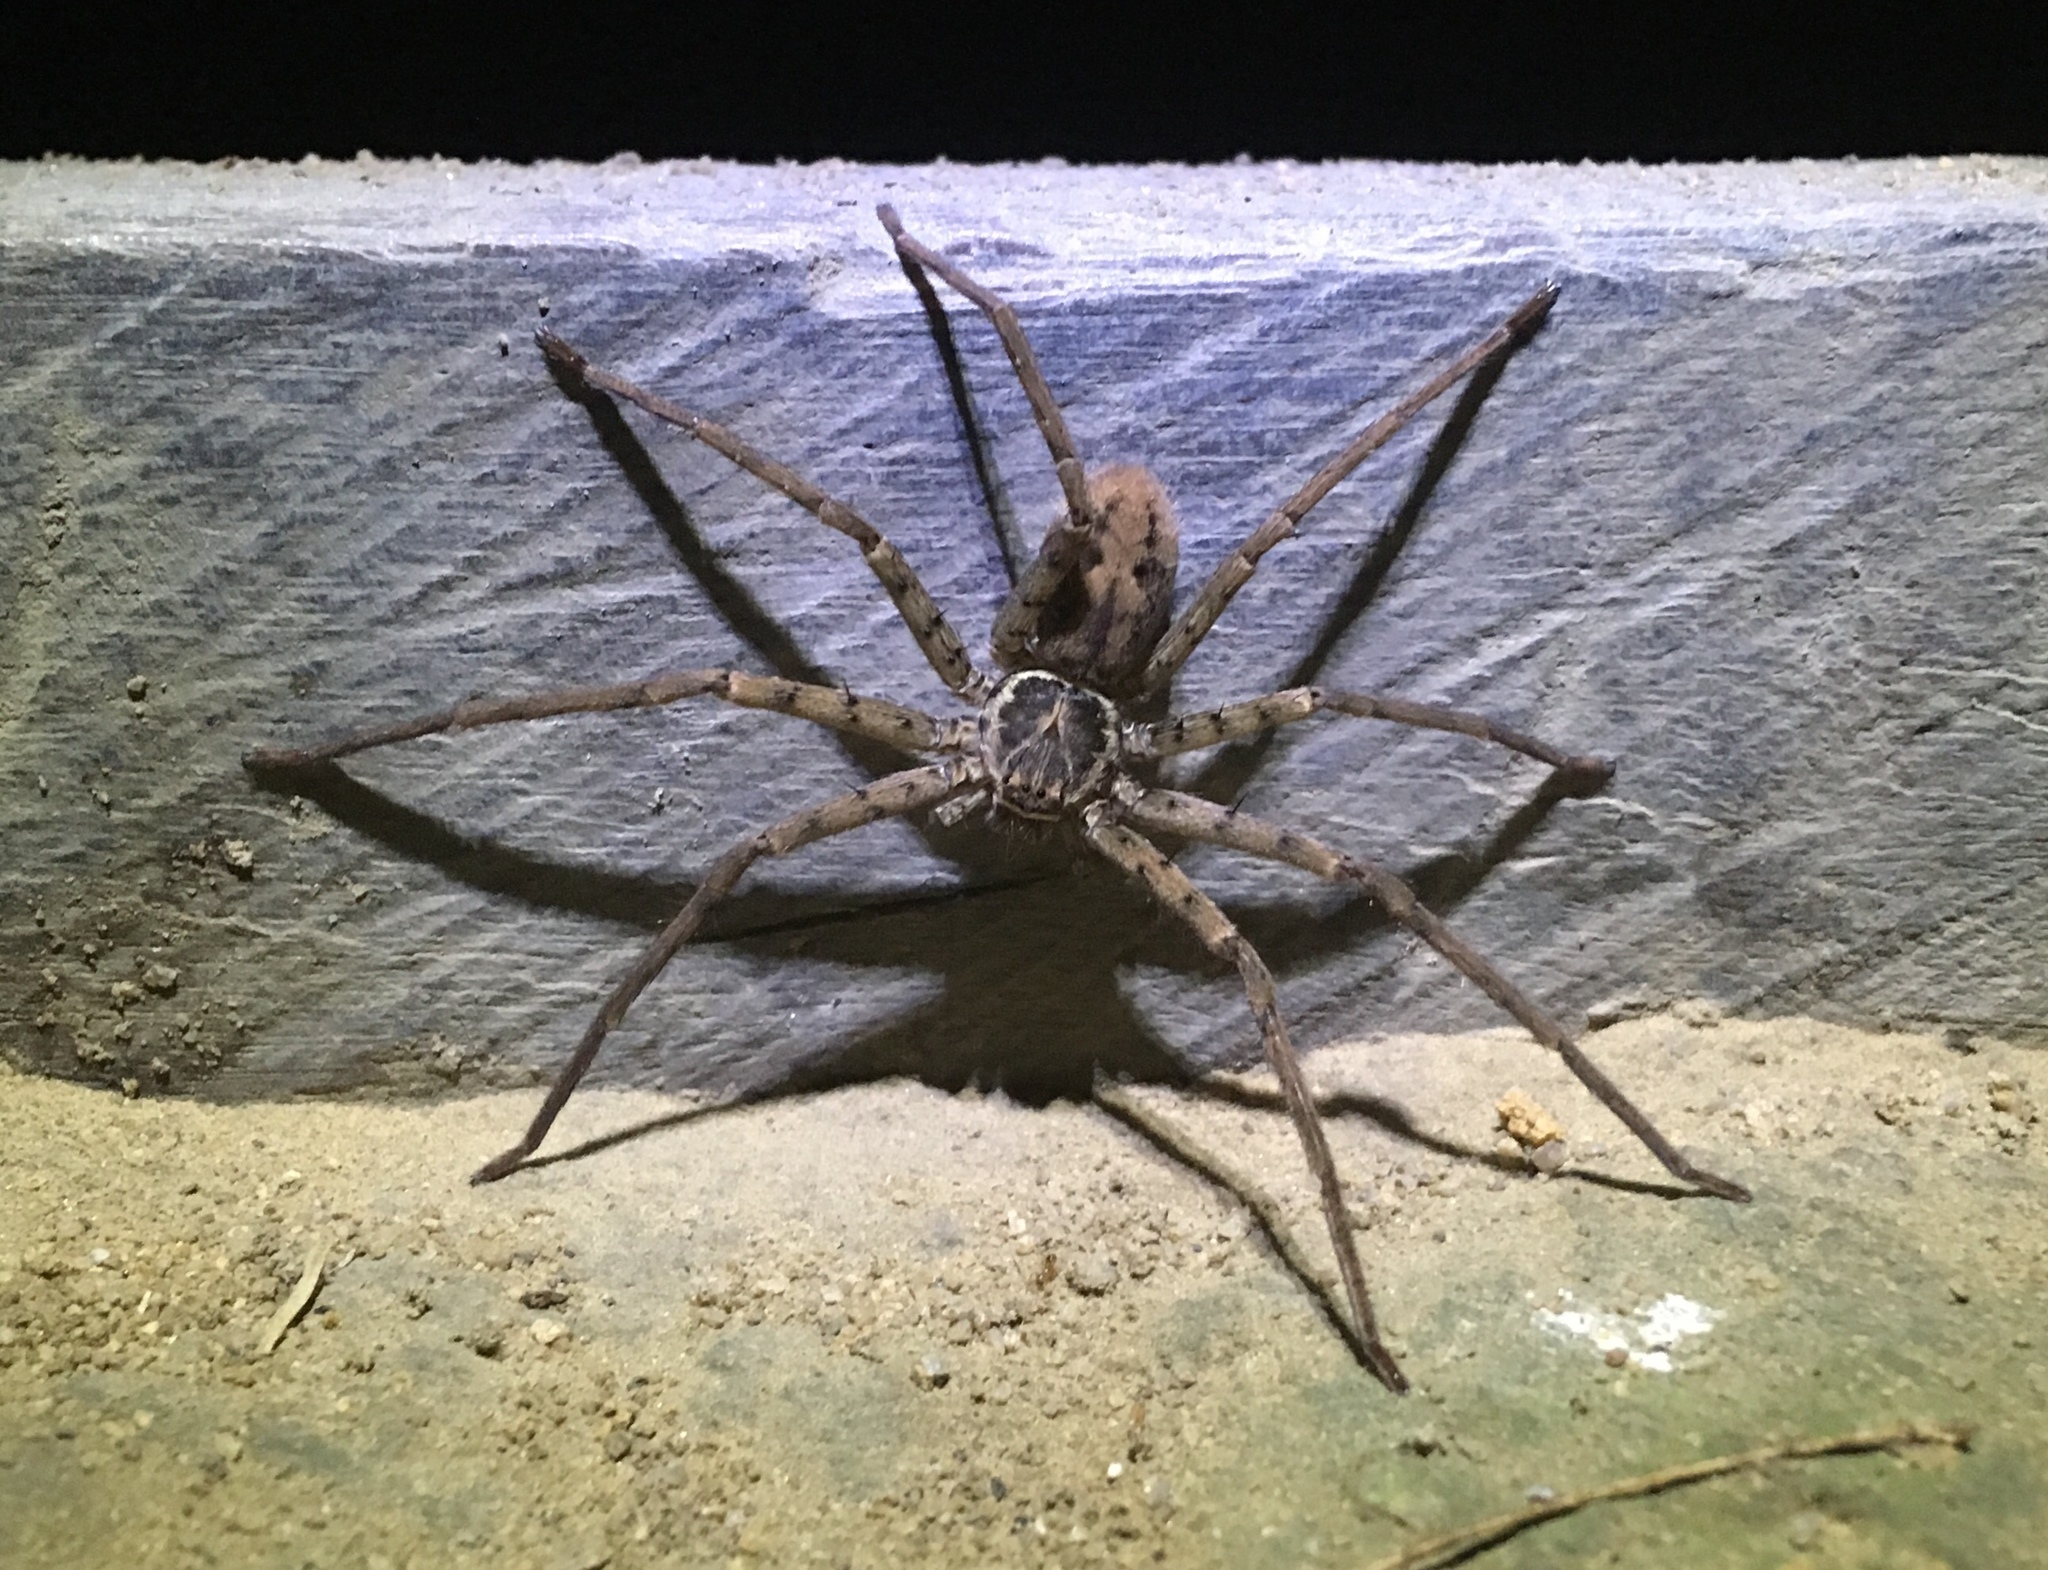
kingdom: Animalia
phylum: Arthropoda
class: Arachnida
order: Araneae
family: Sparassidae
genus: Heteropoda
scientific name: Heteropoda venatoria
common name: Huntsman spider
